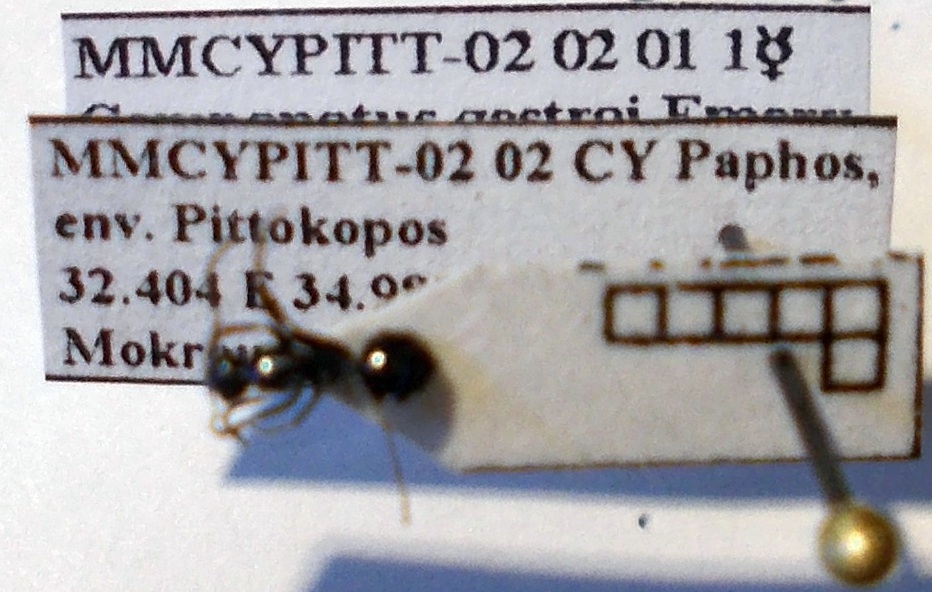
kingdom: Animalia
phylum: Arthropoda
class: Insecta
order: Hymenoptera
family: Formicidae
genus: Camponotus
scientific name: Camponotus gestroi
